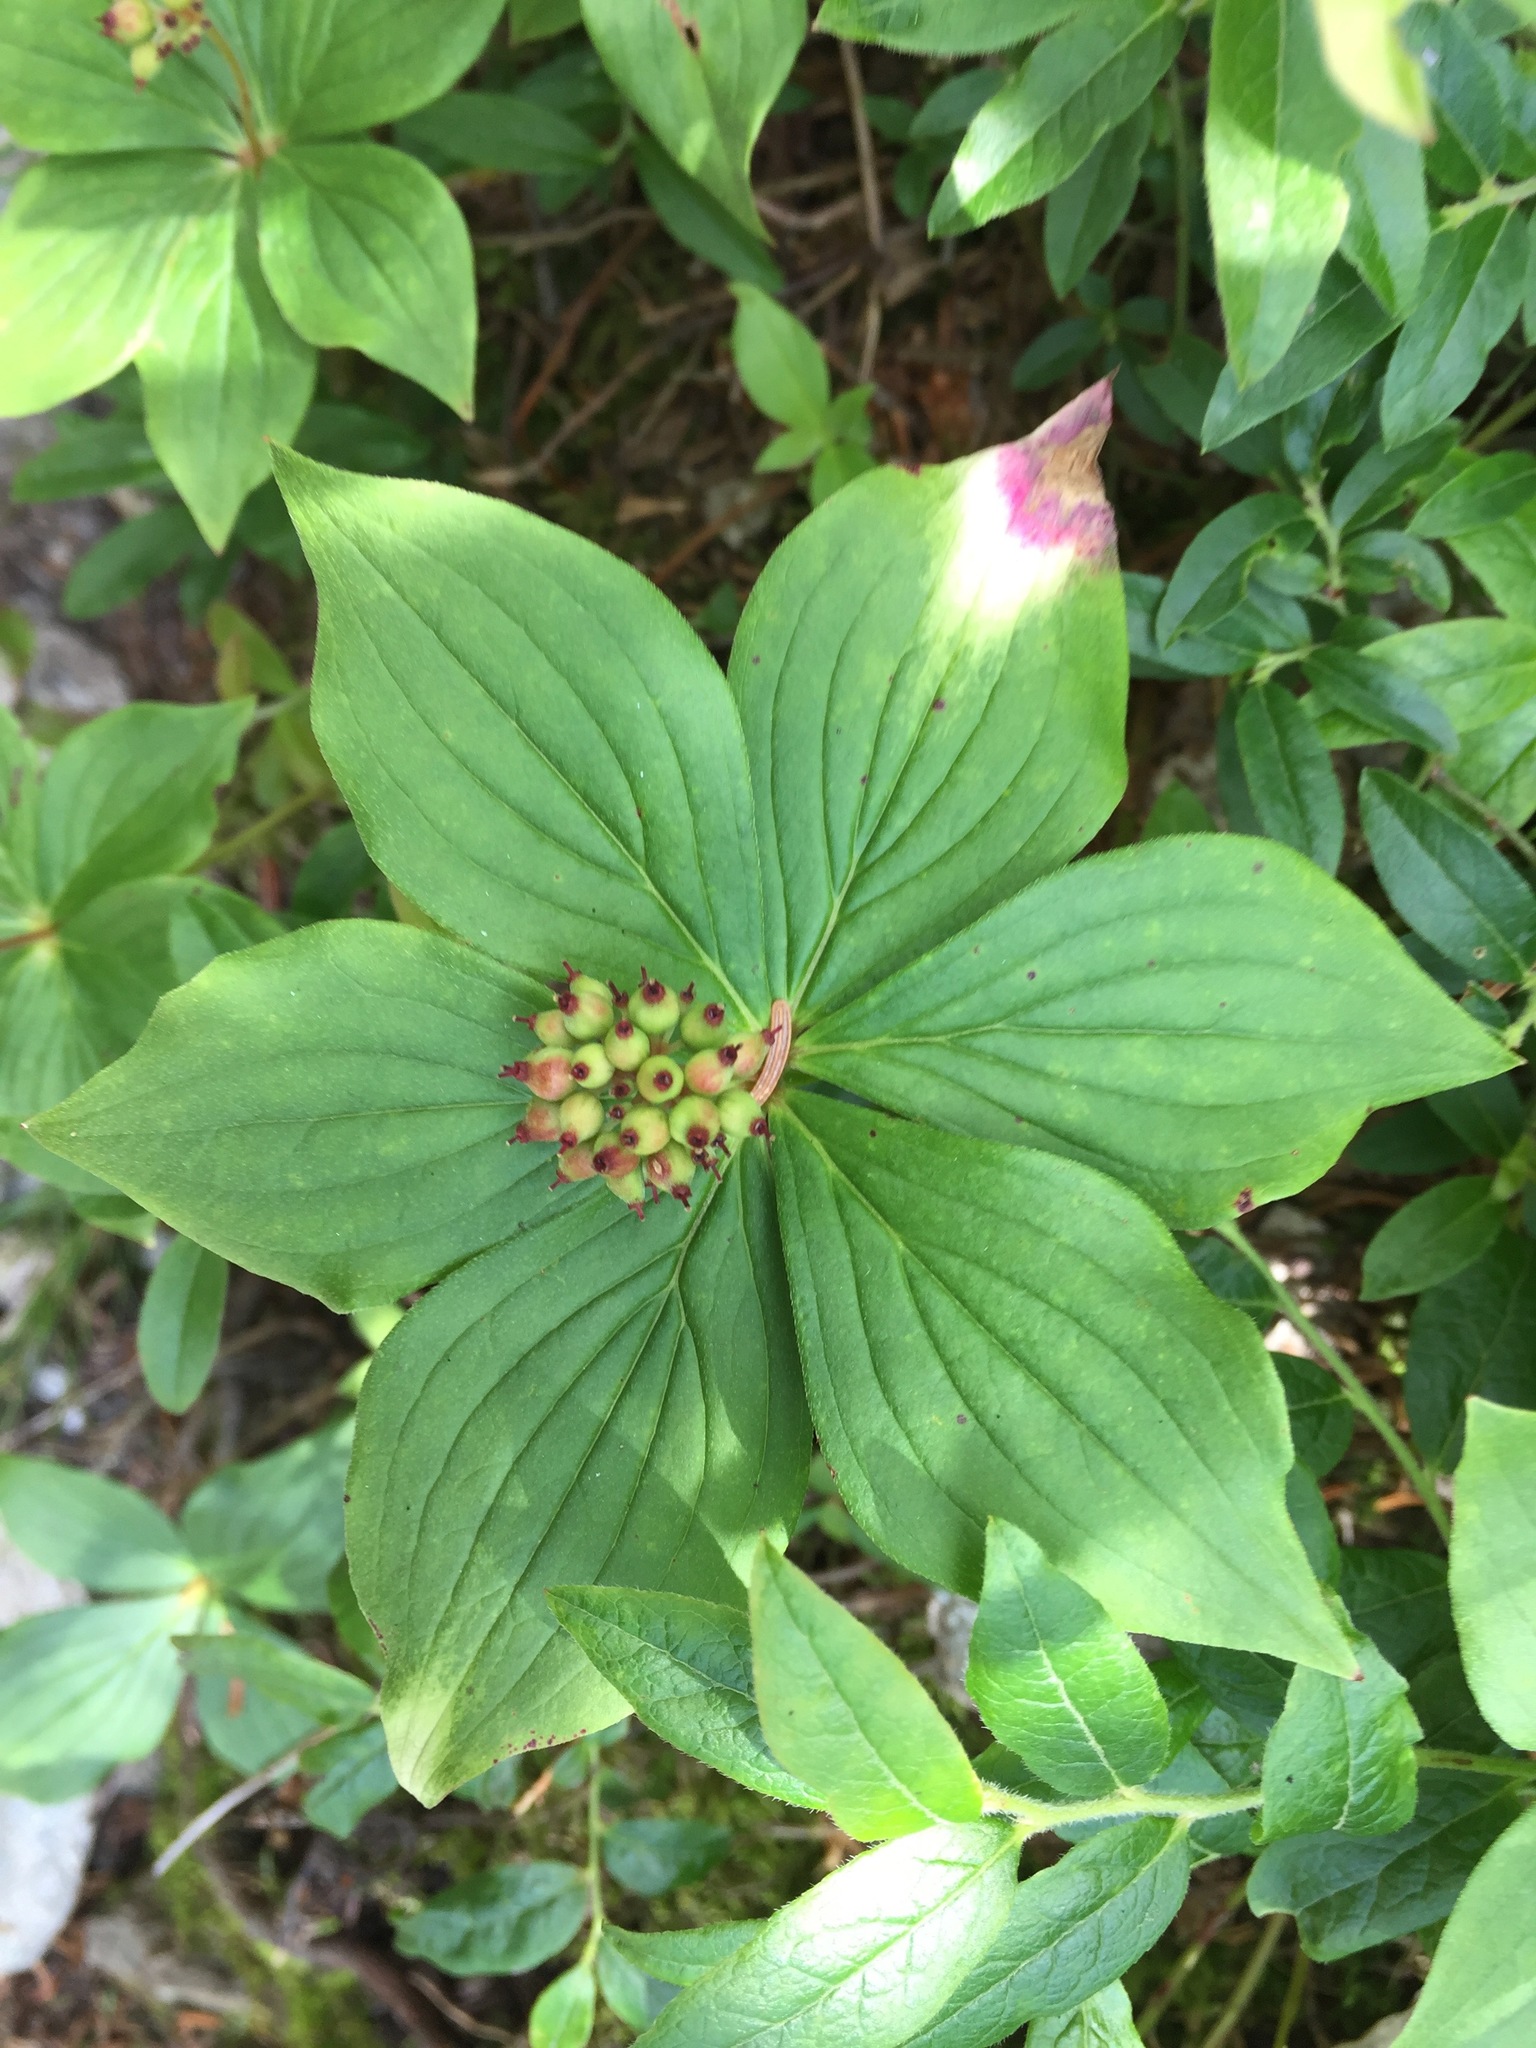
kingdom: Plantae
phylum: Tracheophyta
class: Magnoliopsida
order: Cornales
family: Cornaceae
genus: Cornus
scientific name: Cornus canadensis
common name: Creeping dogwood
